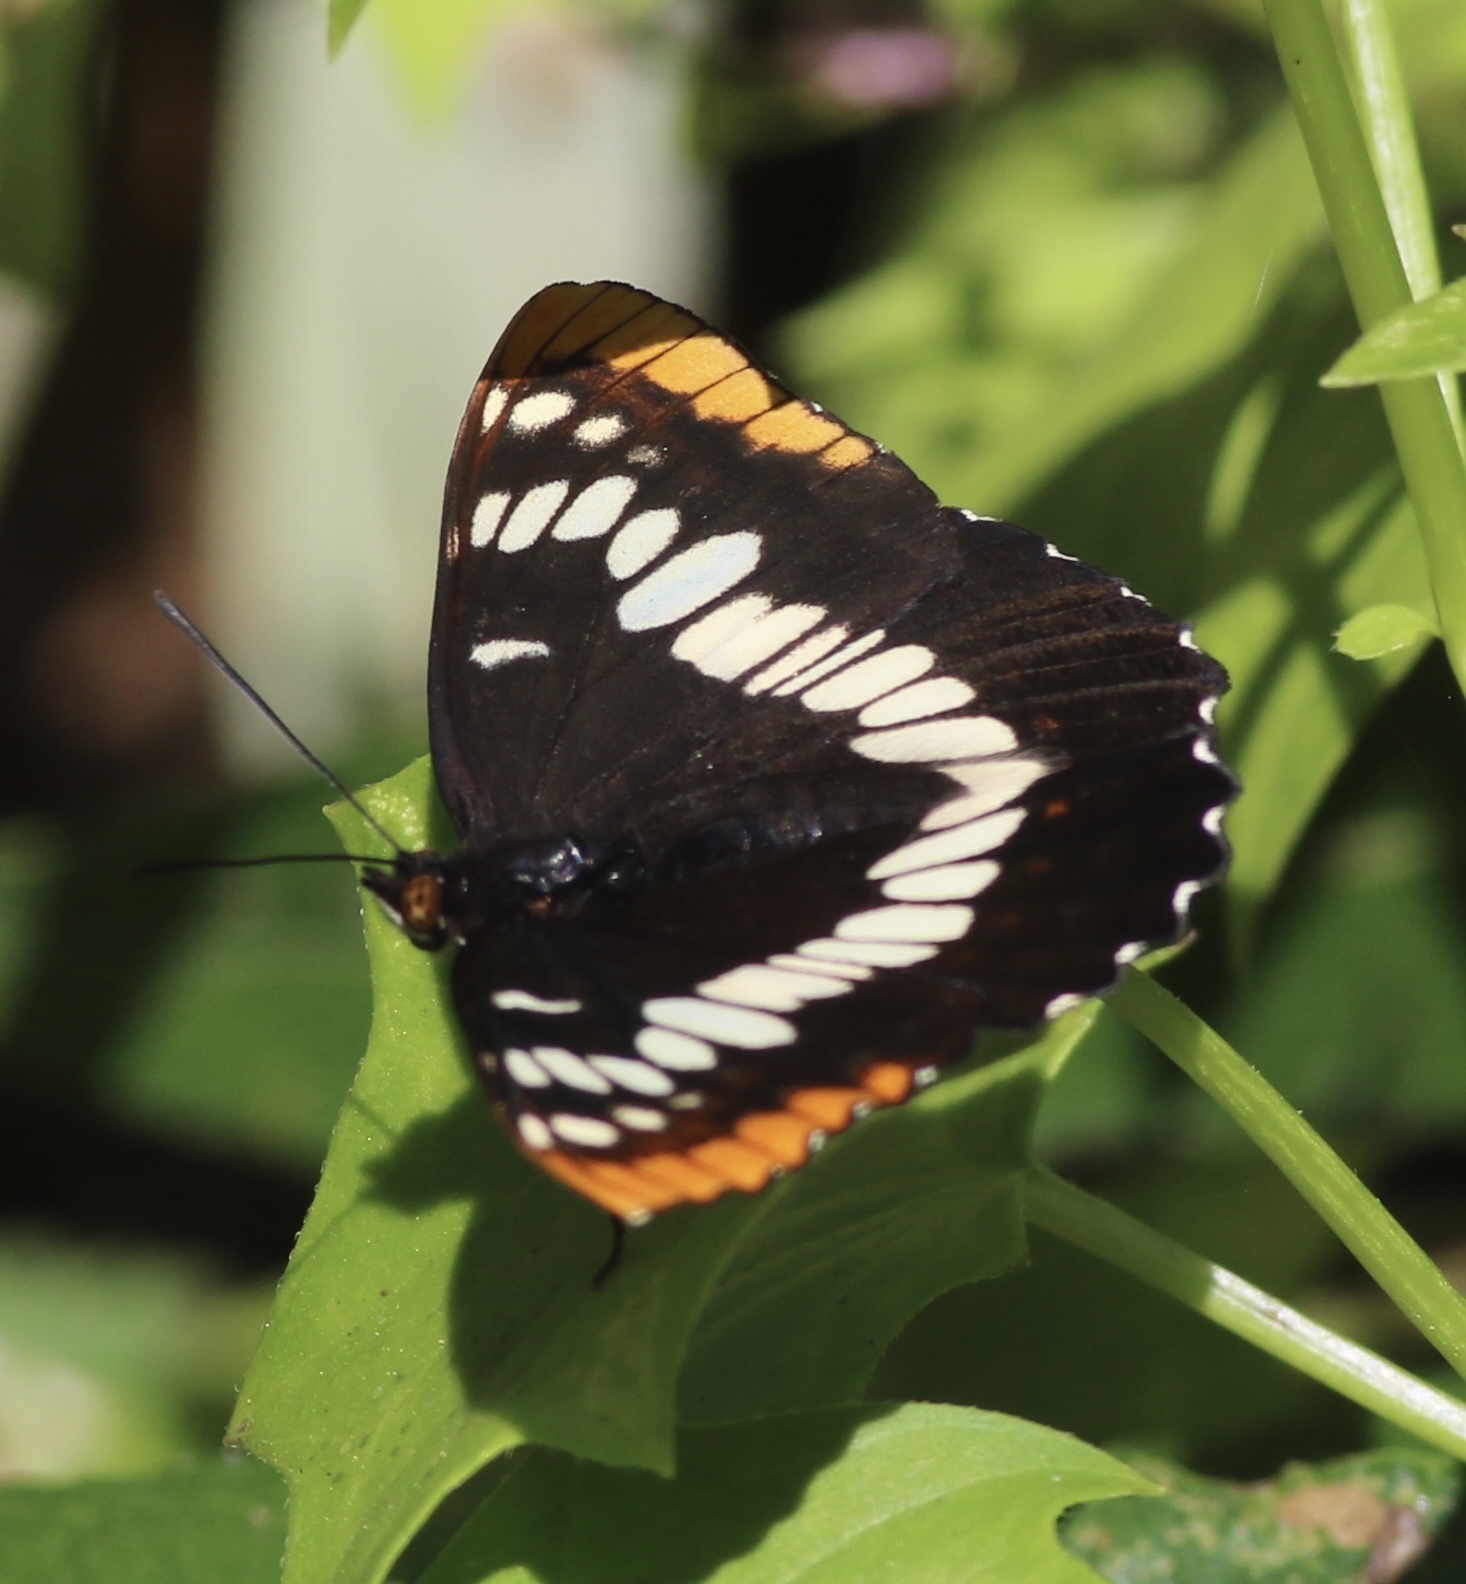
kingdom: Animalia
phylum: Arthropoda
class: Insecta
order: Lepidoptera
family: Nymphalidae
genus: Limenitis
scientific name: Limenitis lorquini
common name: Lorquin's admiral
